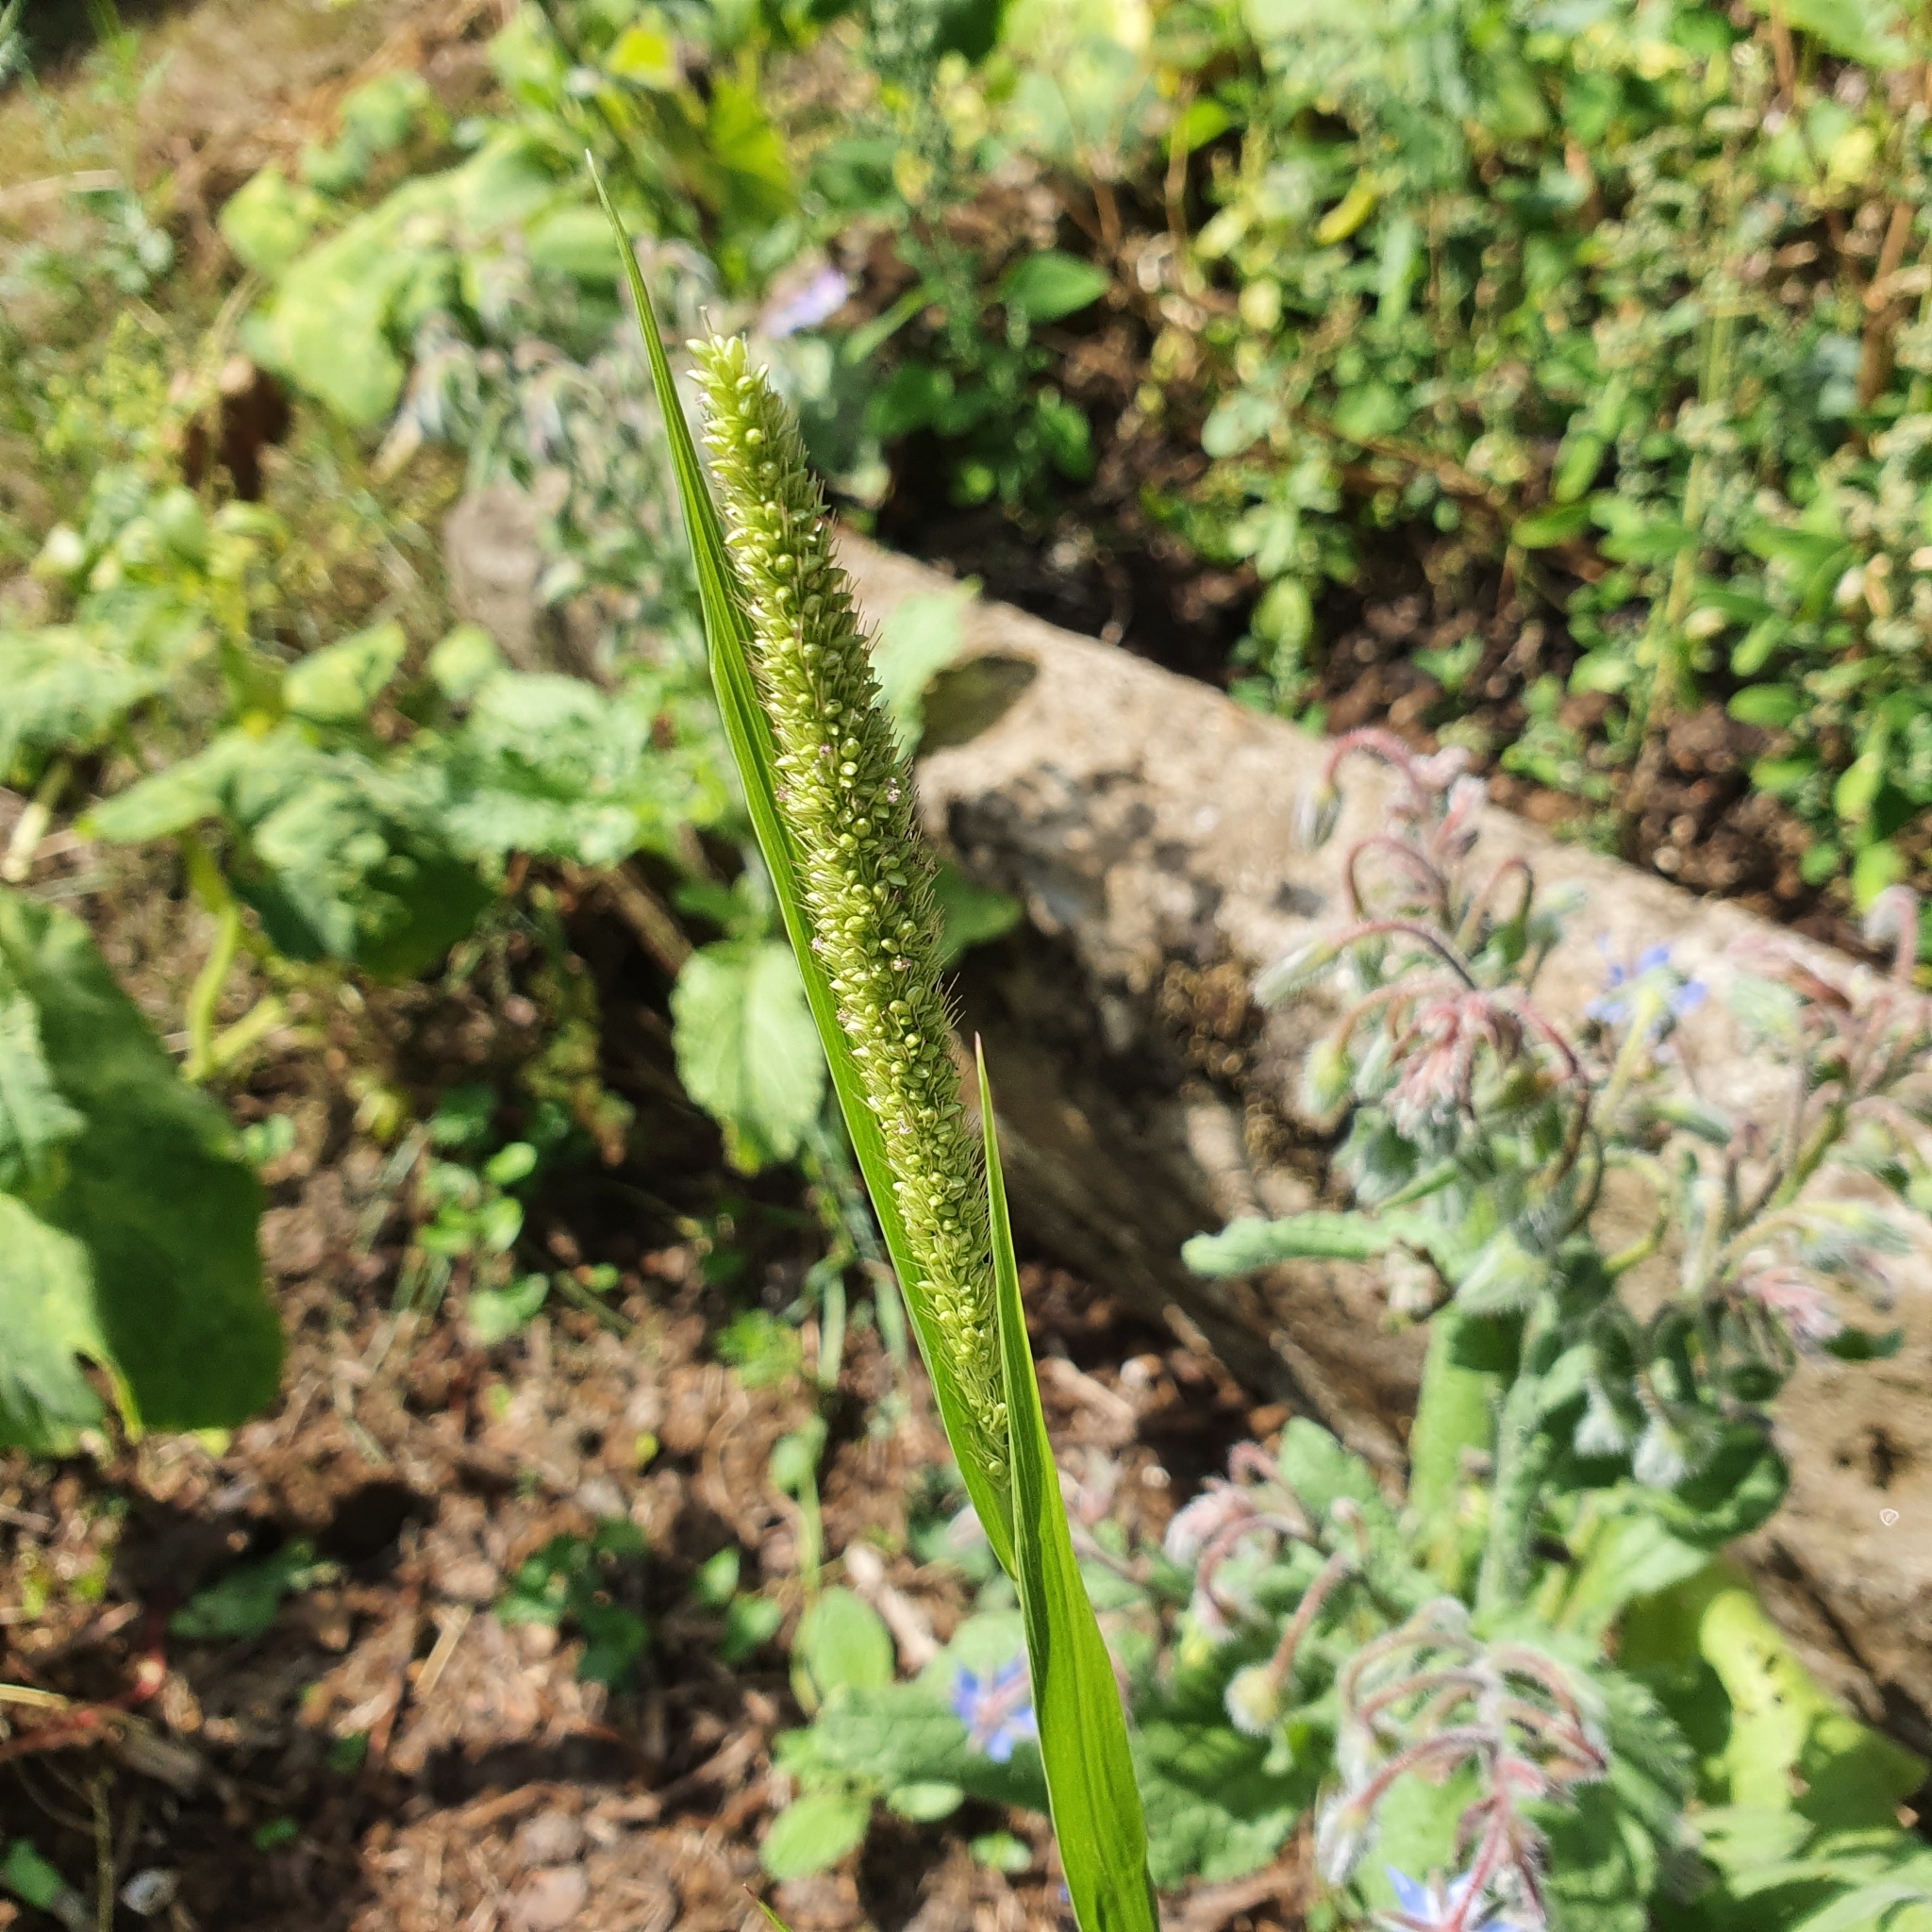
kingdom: Plantae
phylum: Tracheophyta
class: Liliopsida
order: Poales
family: Poaceae
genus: Echinochloa
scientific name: Echinochloa crus-galli
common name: Cockspur
